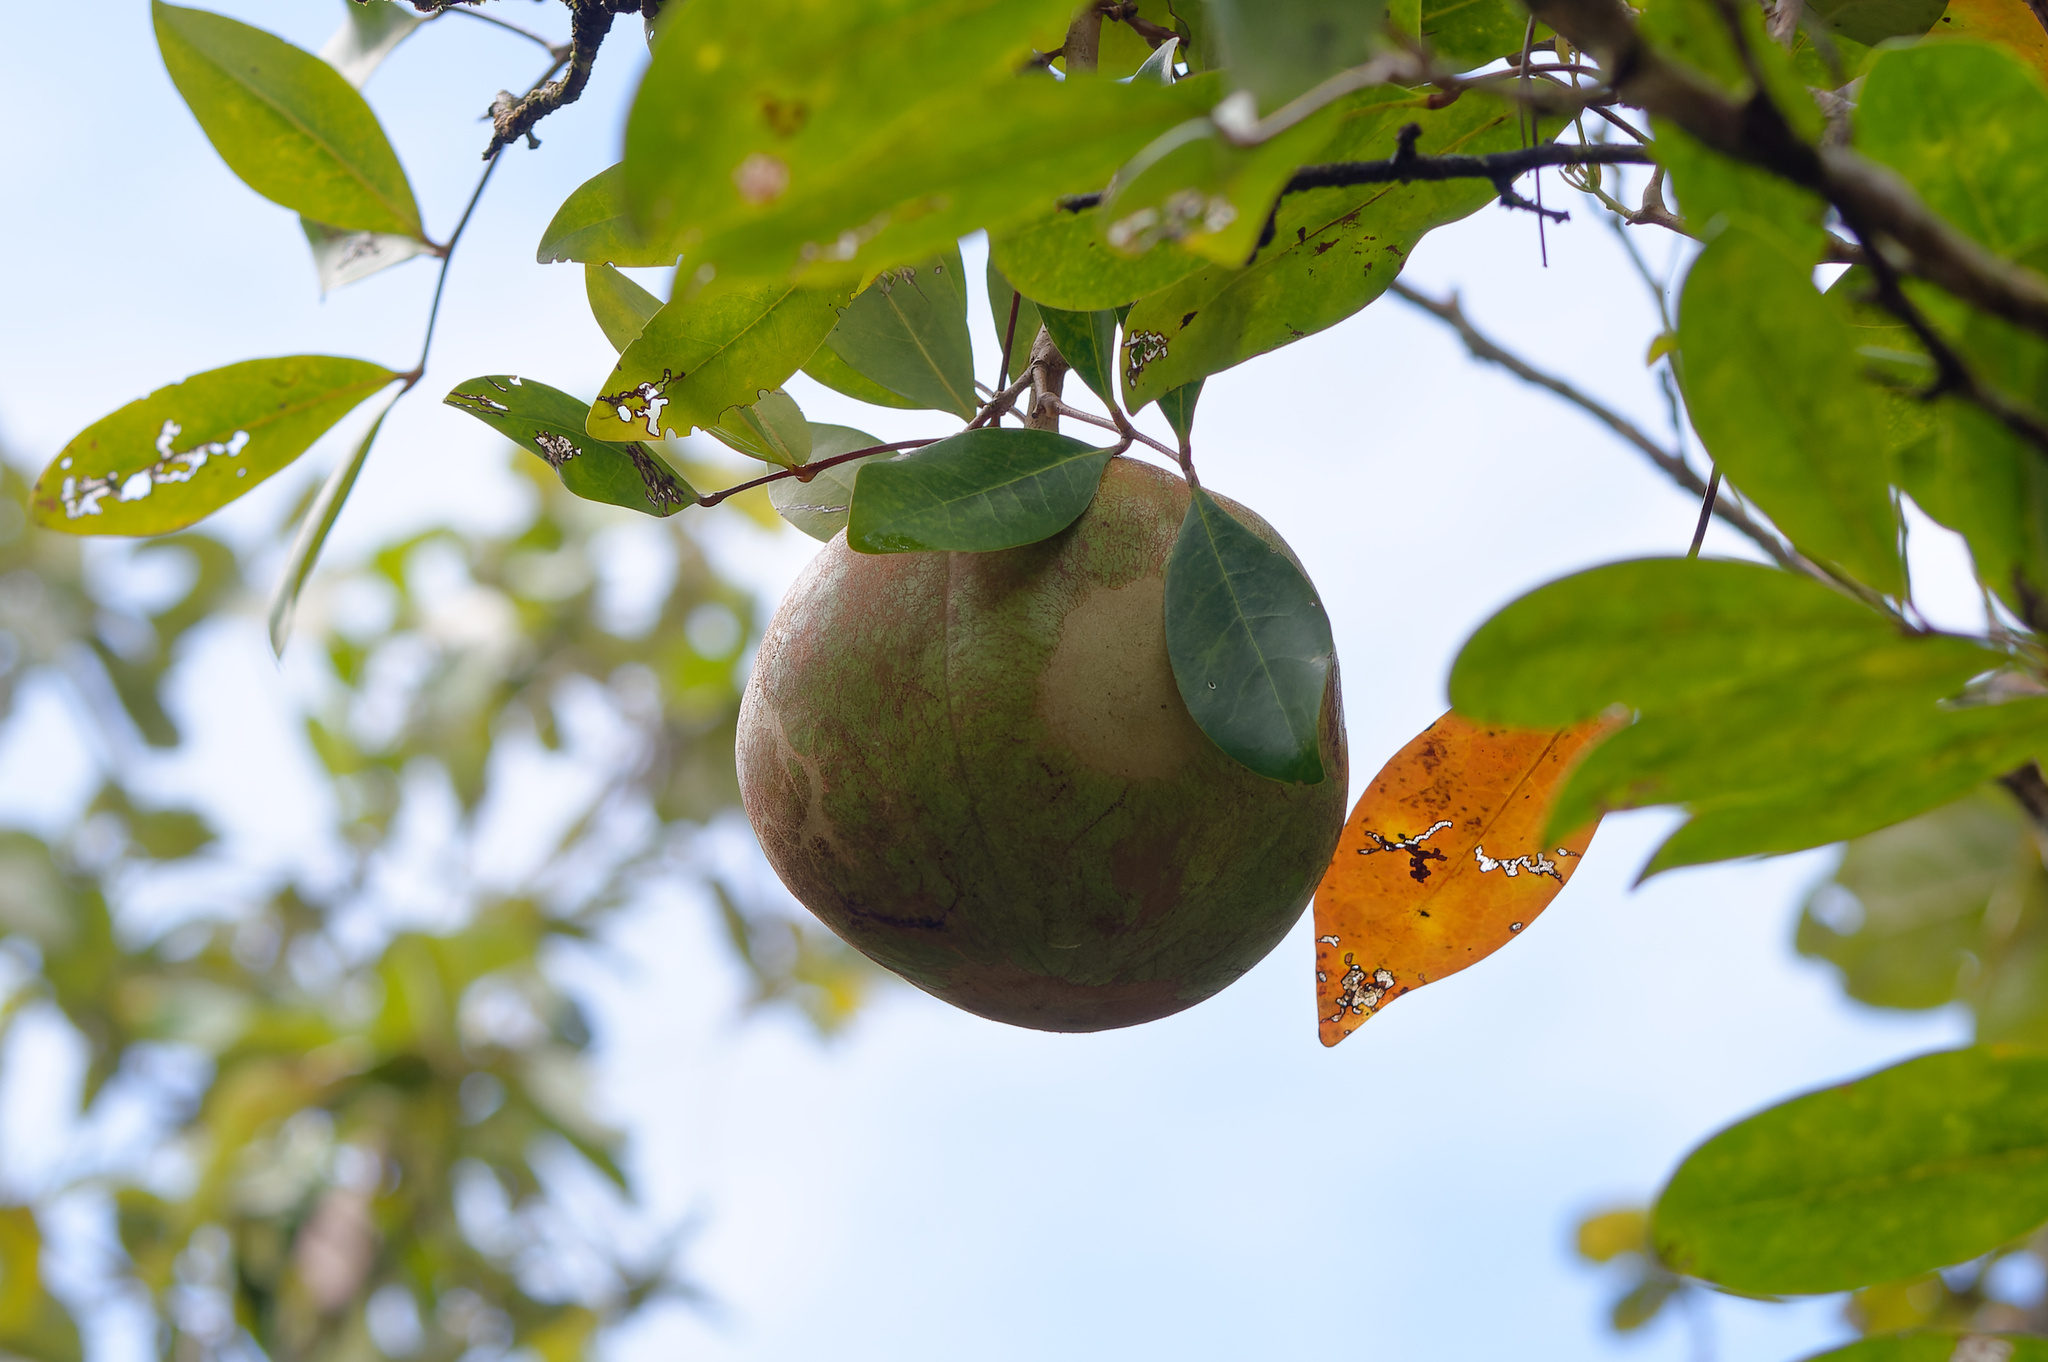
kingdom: Plantae
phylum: Tracheophyta
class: Magnoliopsida
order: Sapindales
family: Meliaceae
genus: Xylocarpus
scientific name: Xylocarpus granatum
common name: Apple mangrove
